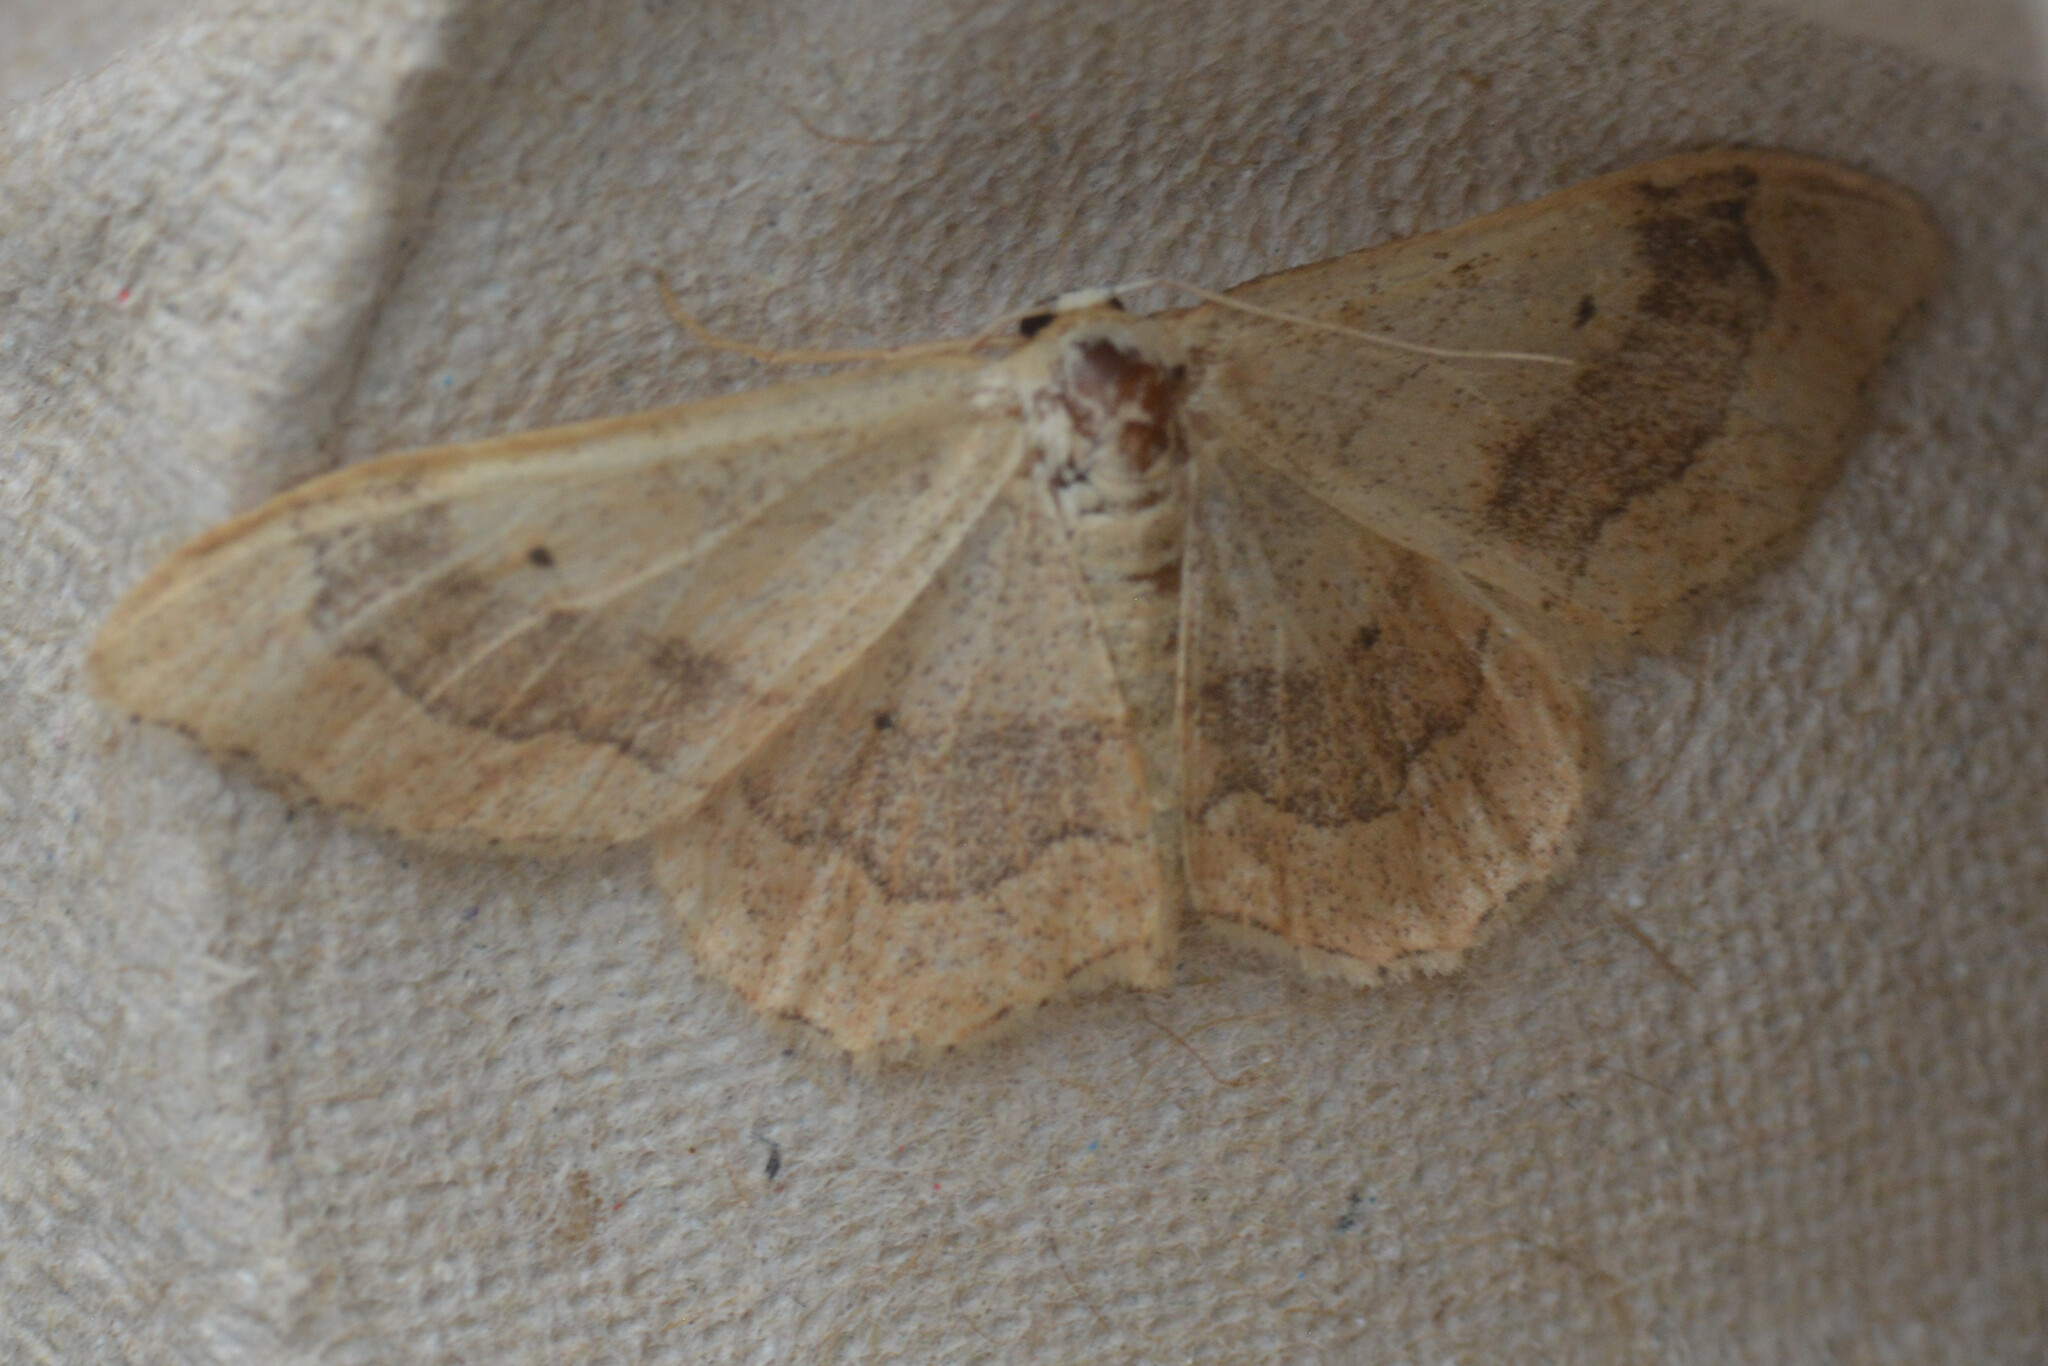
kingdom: Animalia
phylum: Arthropoda
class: Insecta
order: Lepidoptera
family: Geometridae
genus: Idaea
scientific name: Idaea aversata
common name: Riband wave
